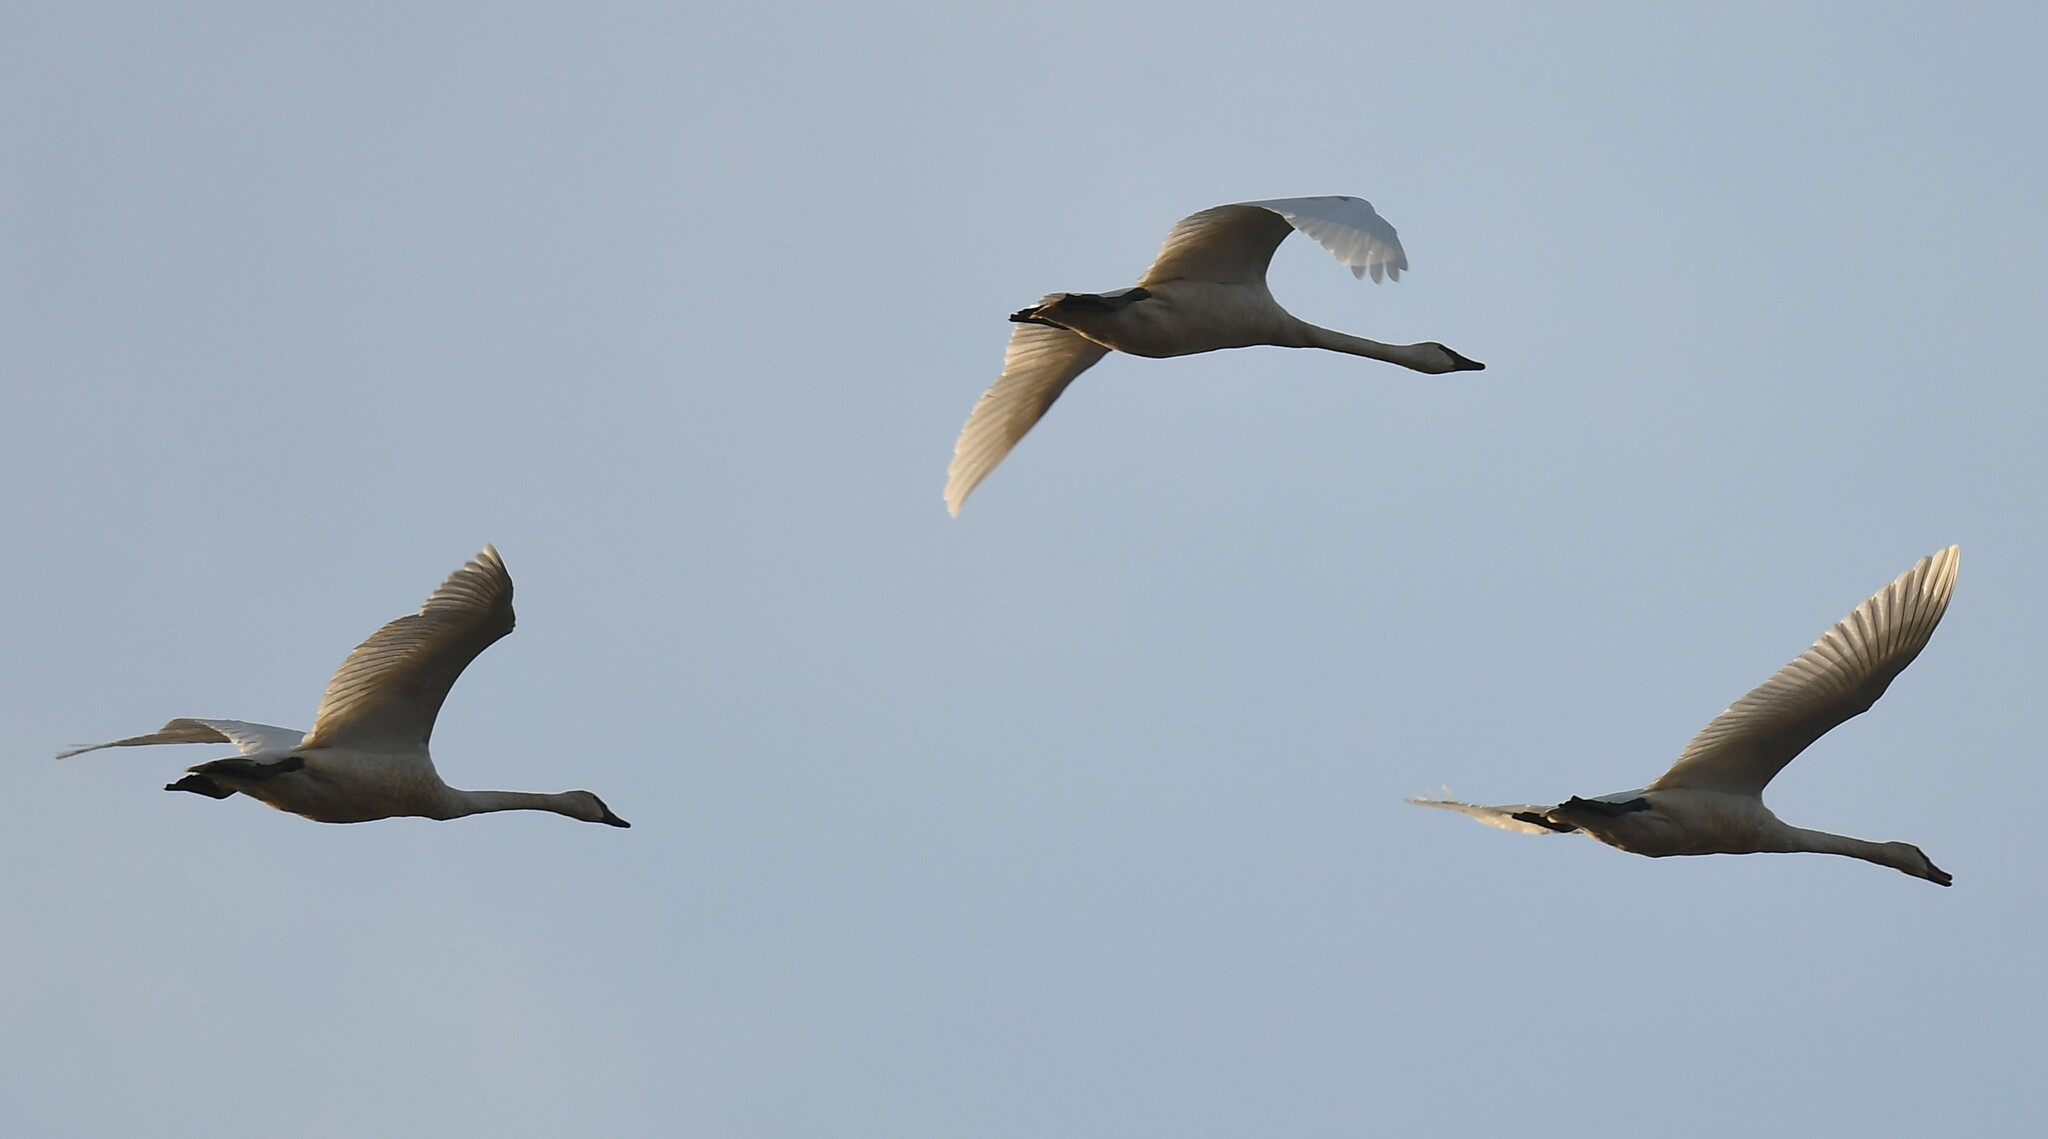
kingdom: Animalia
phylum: Chordata
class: Aves
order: Anseriformes
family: Anatidae
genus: Cygnus
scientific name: Cygnus buccinator
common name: Trumpeter swan
